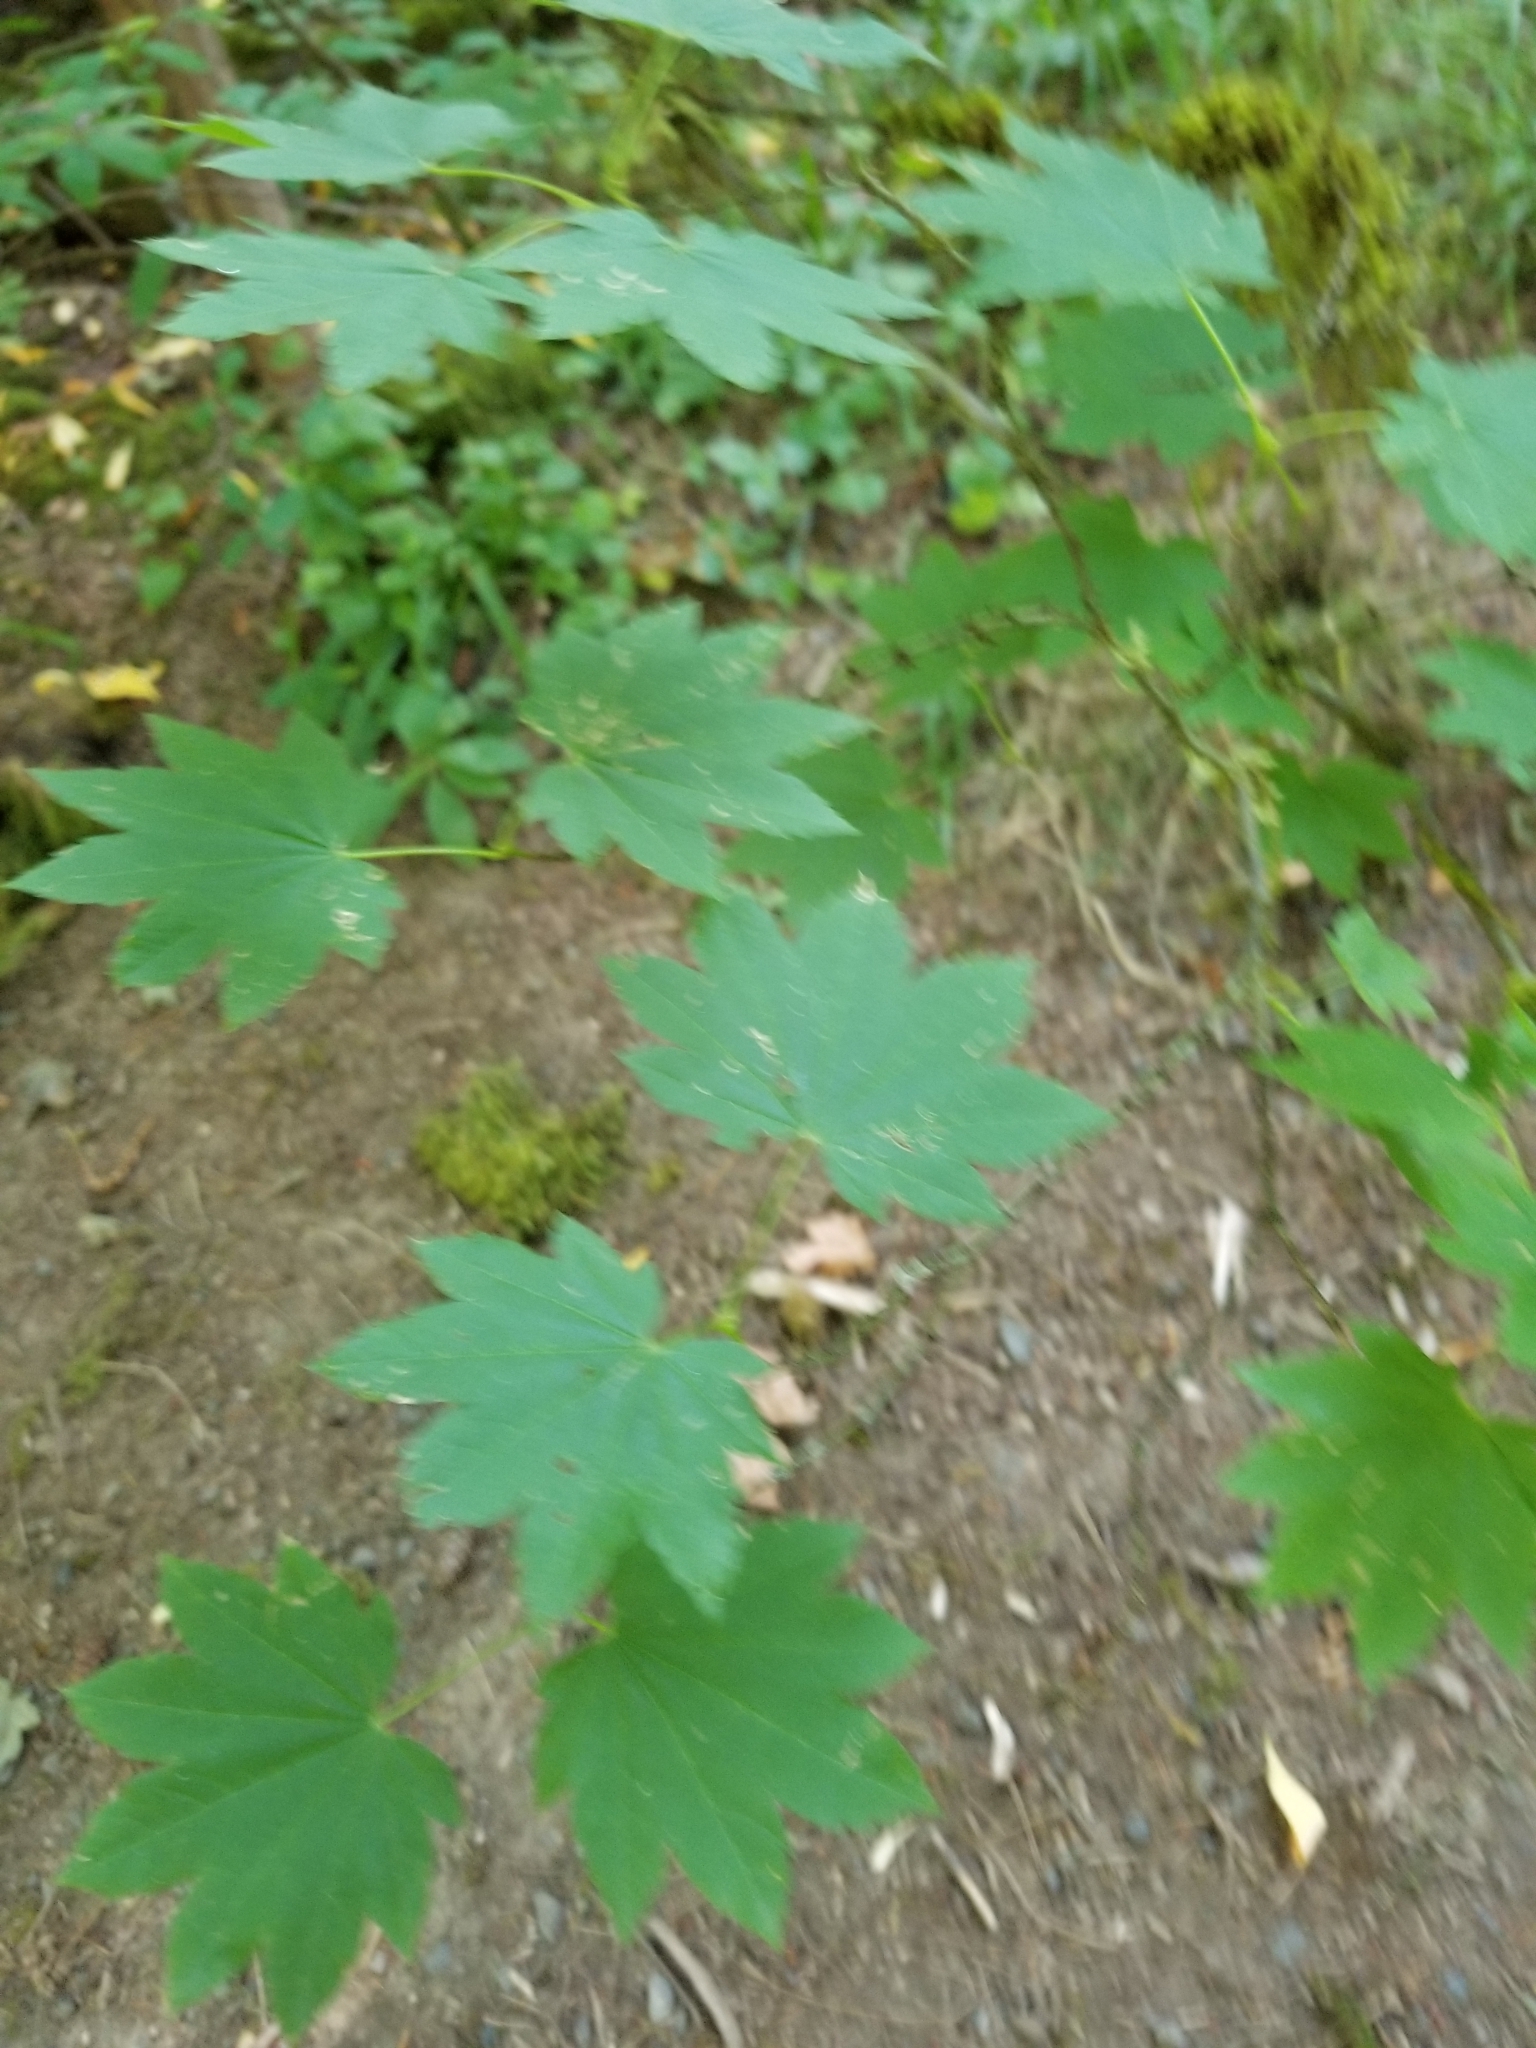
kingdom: Plantae
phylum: Tracheophyta
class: Magnoliopsida
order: Sapindales
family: Sapindaceae
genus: Acer
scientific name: Acer circinatum
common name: Vine maple
